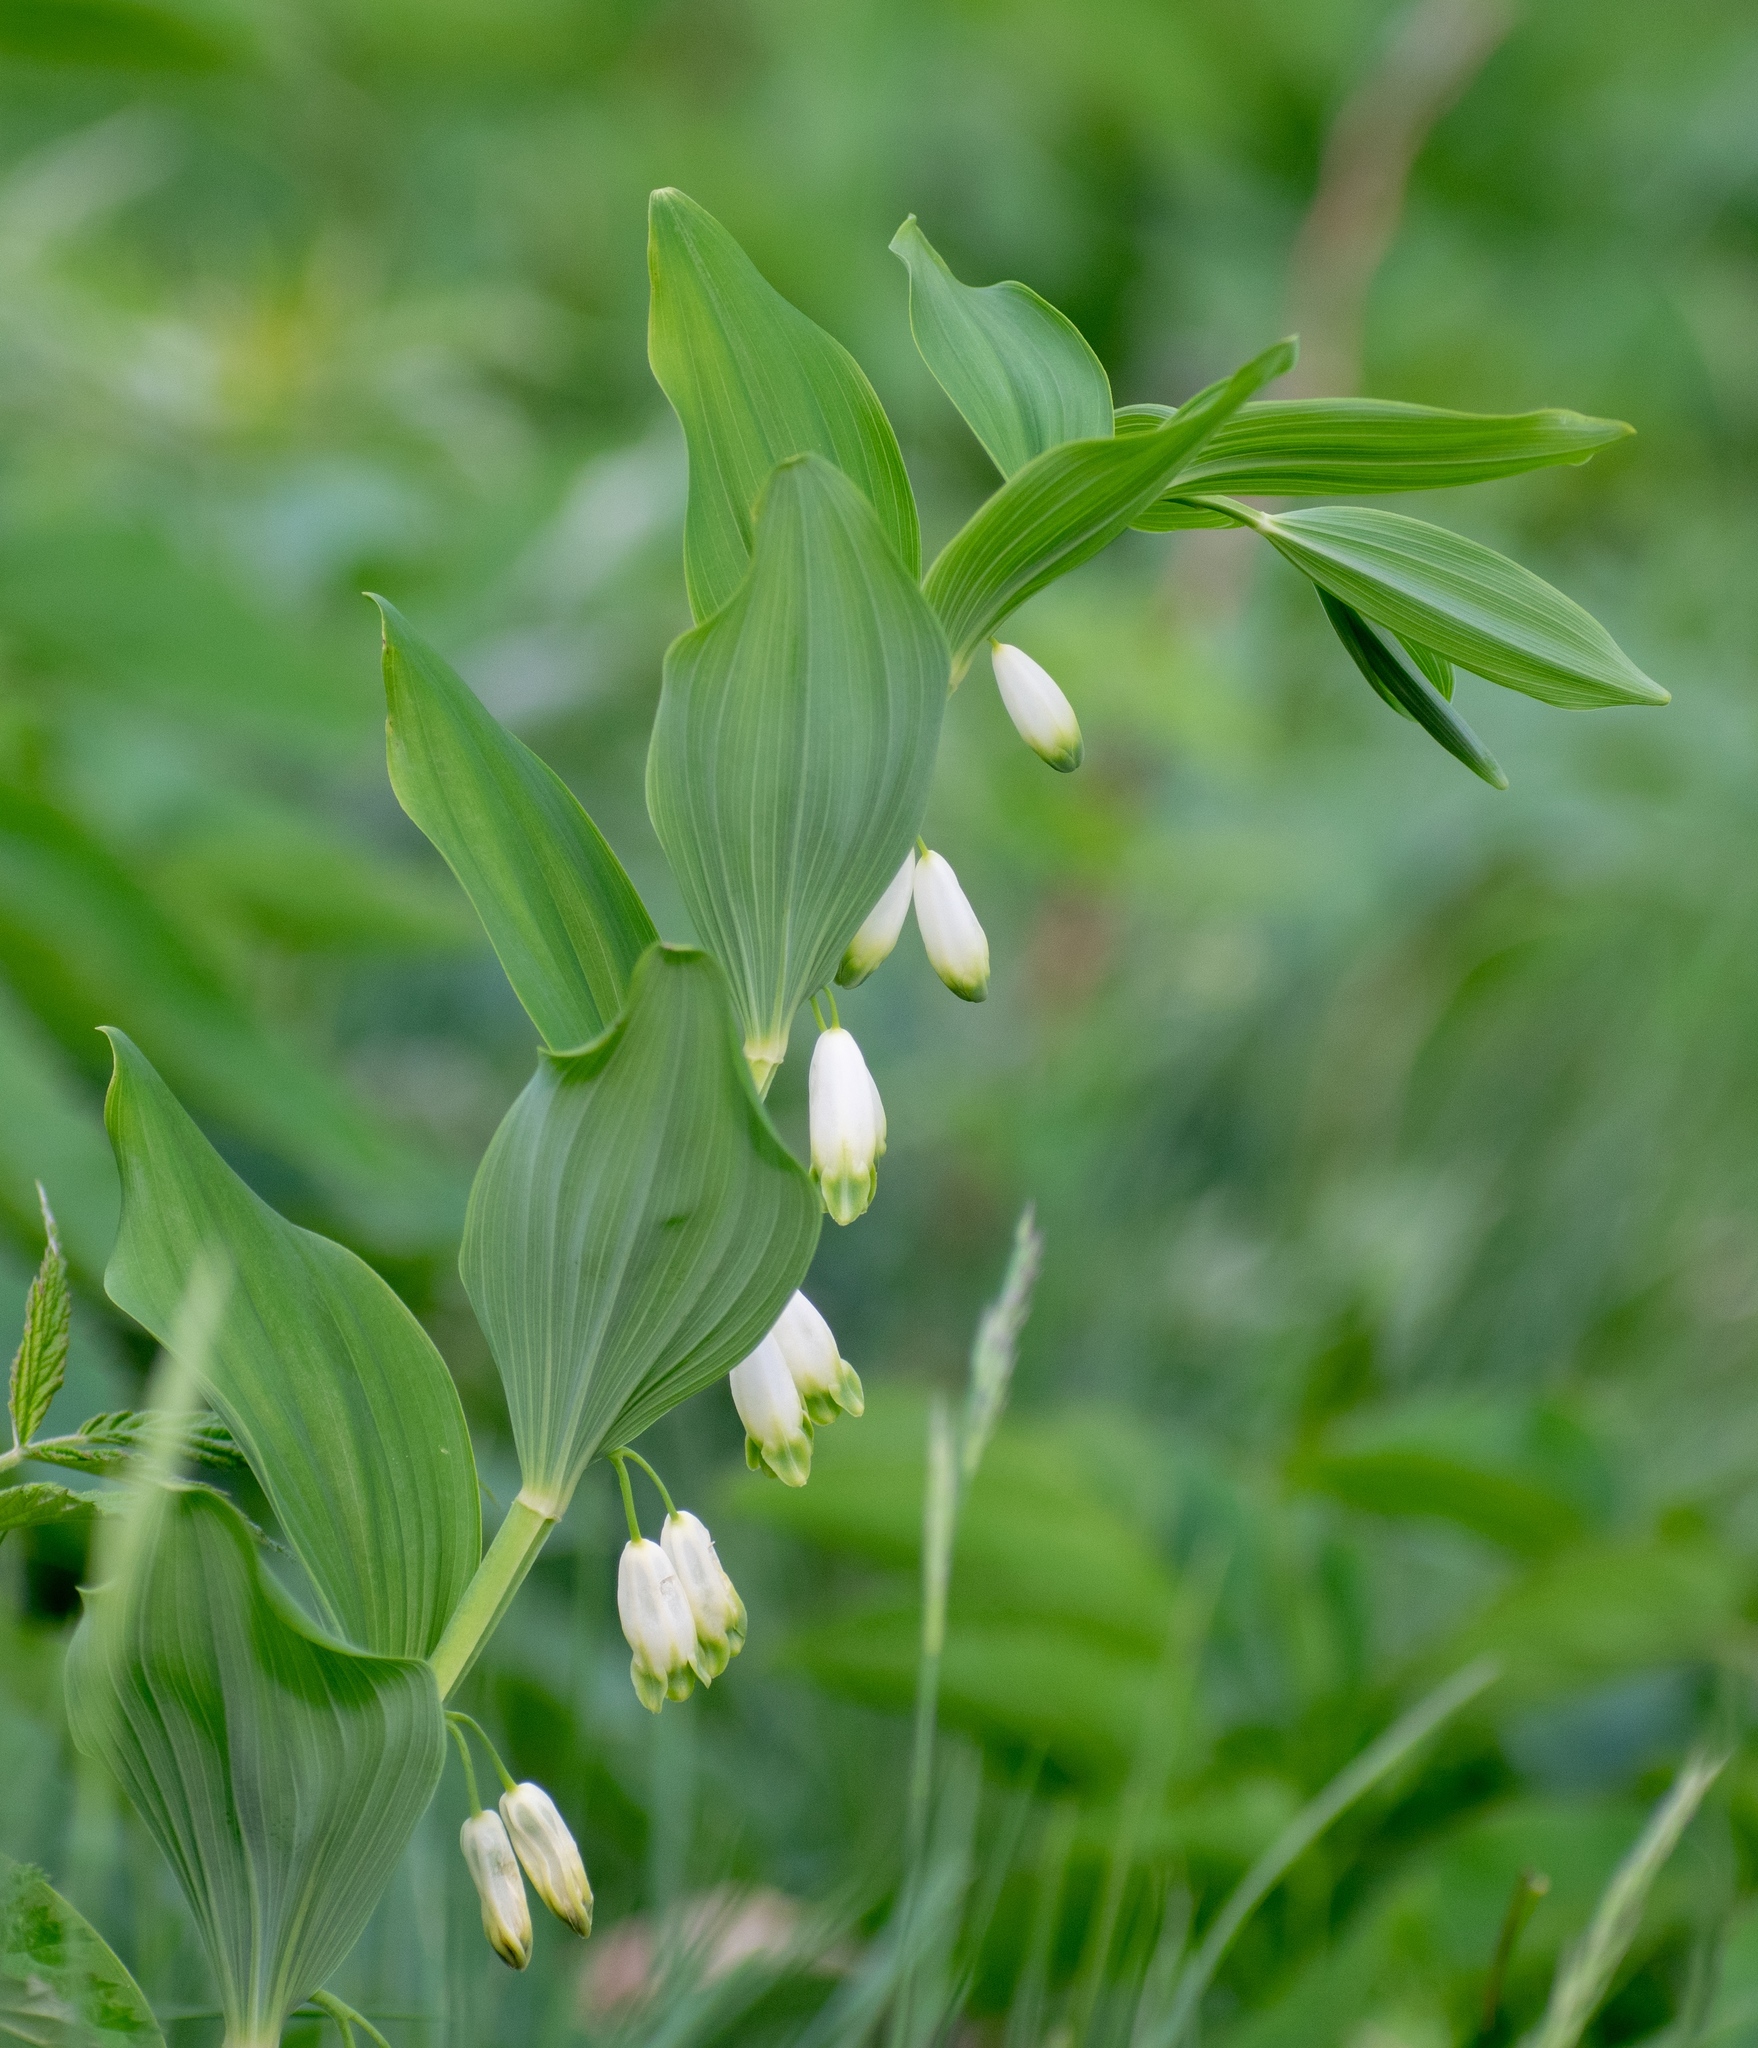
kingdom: Plantae
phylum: Tracheophyta
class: Liliopsida
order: Asparagales
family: Asparagaceae
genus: Polygonatum
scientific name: Polygonatum odoratum
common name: Angular solomon's-seal
